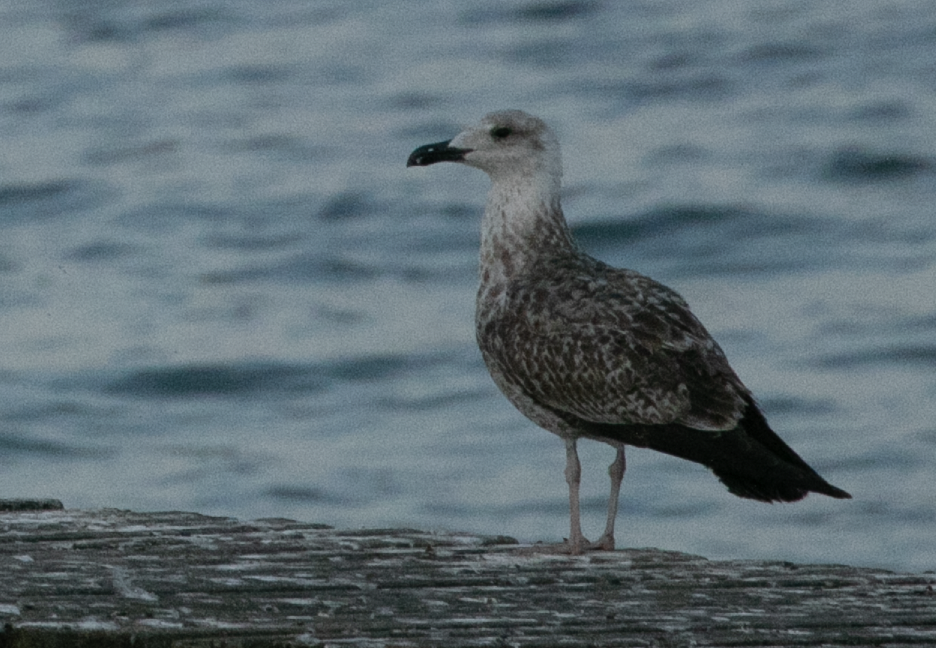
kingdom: Animalia
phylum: Chordata
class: Aves
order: Charadriiformes
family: Laridae
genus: Larus
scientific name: Larus michahellis
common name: Yellow-legged gull
